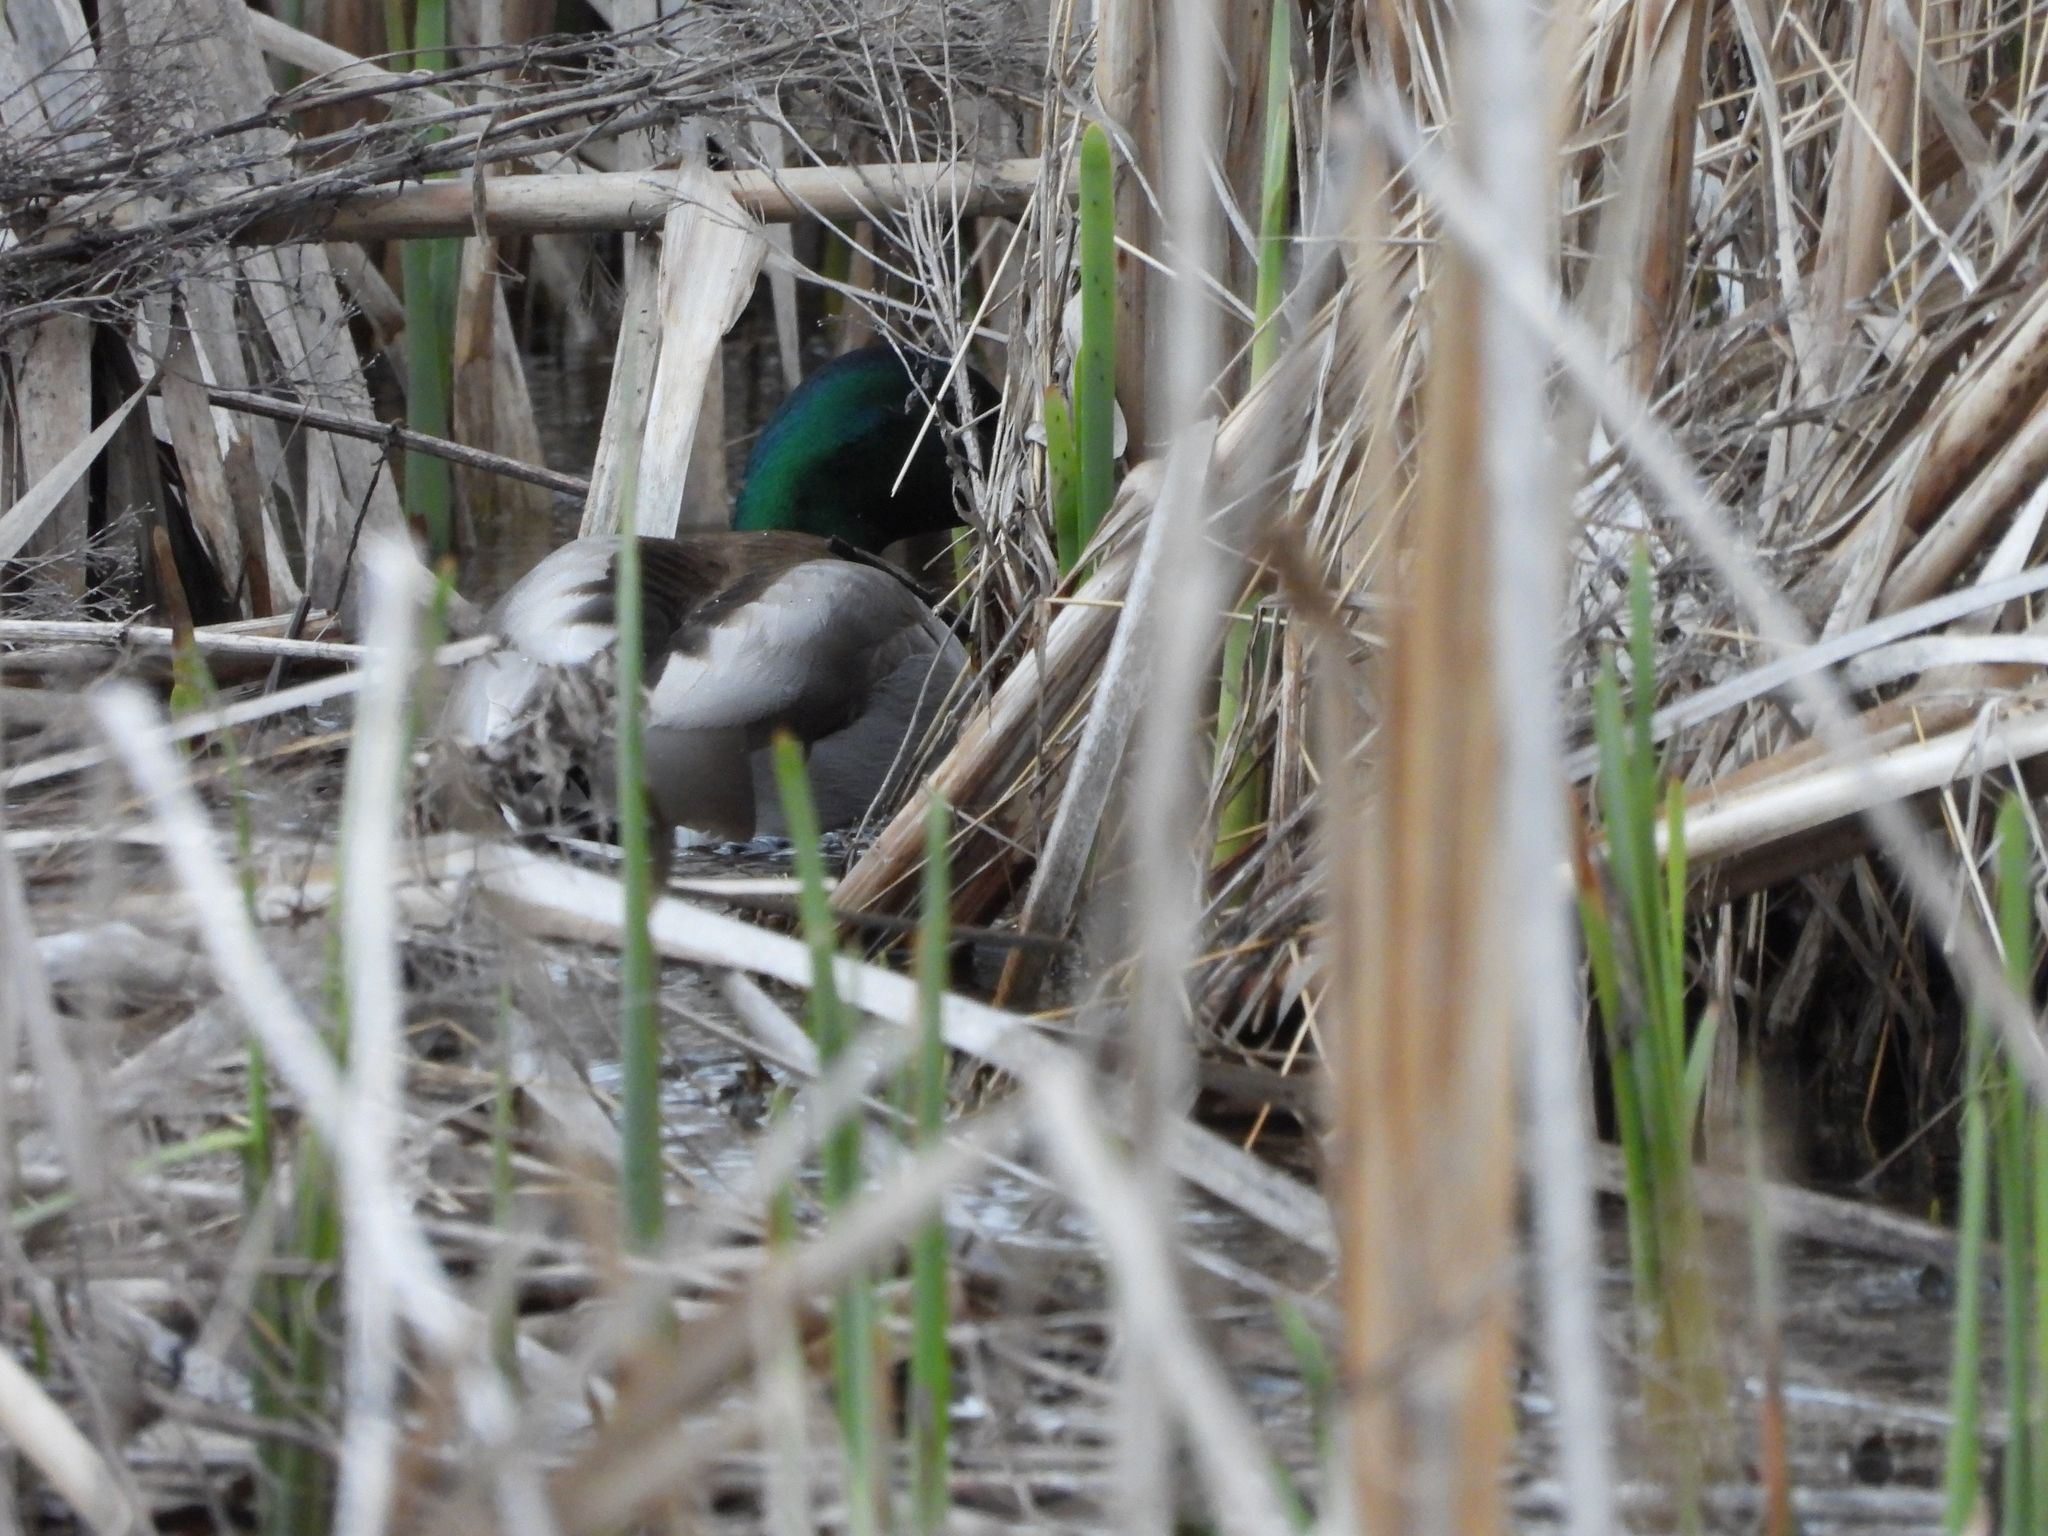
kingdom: Animalia
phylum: Chordata
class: Aves
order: Anseriformes
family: Anatidae
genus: Anas
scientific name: Anas platyrhynchos
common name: Mallard
